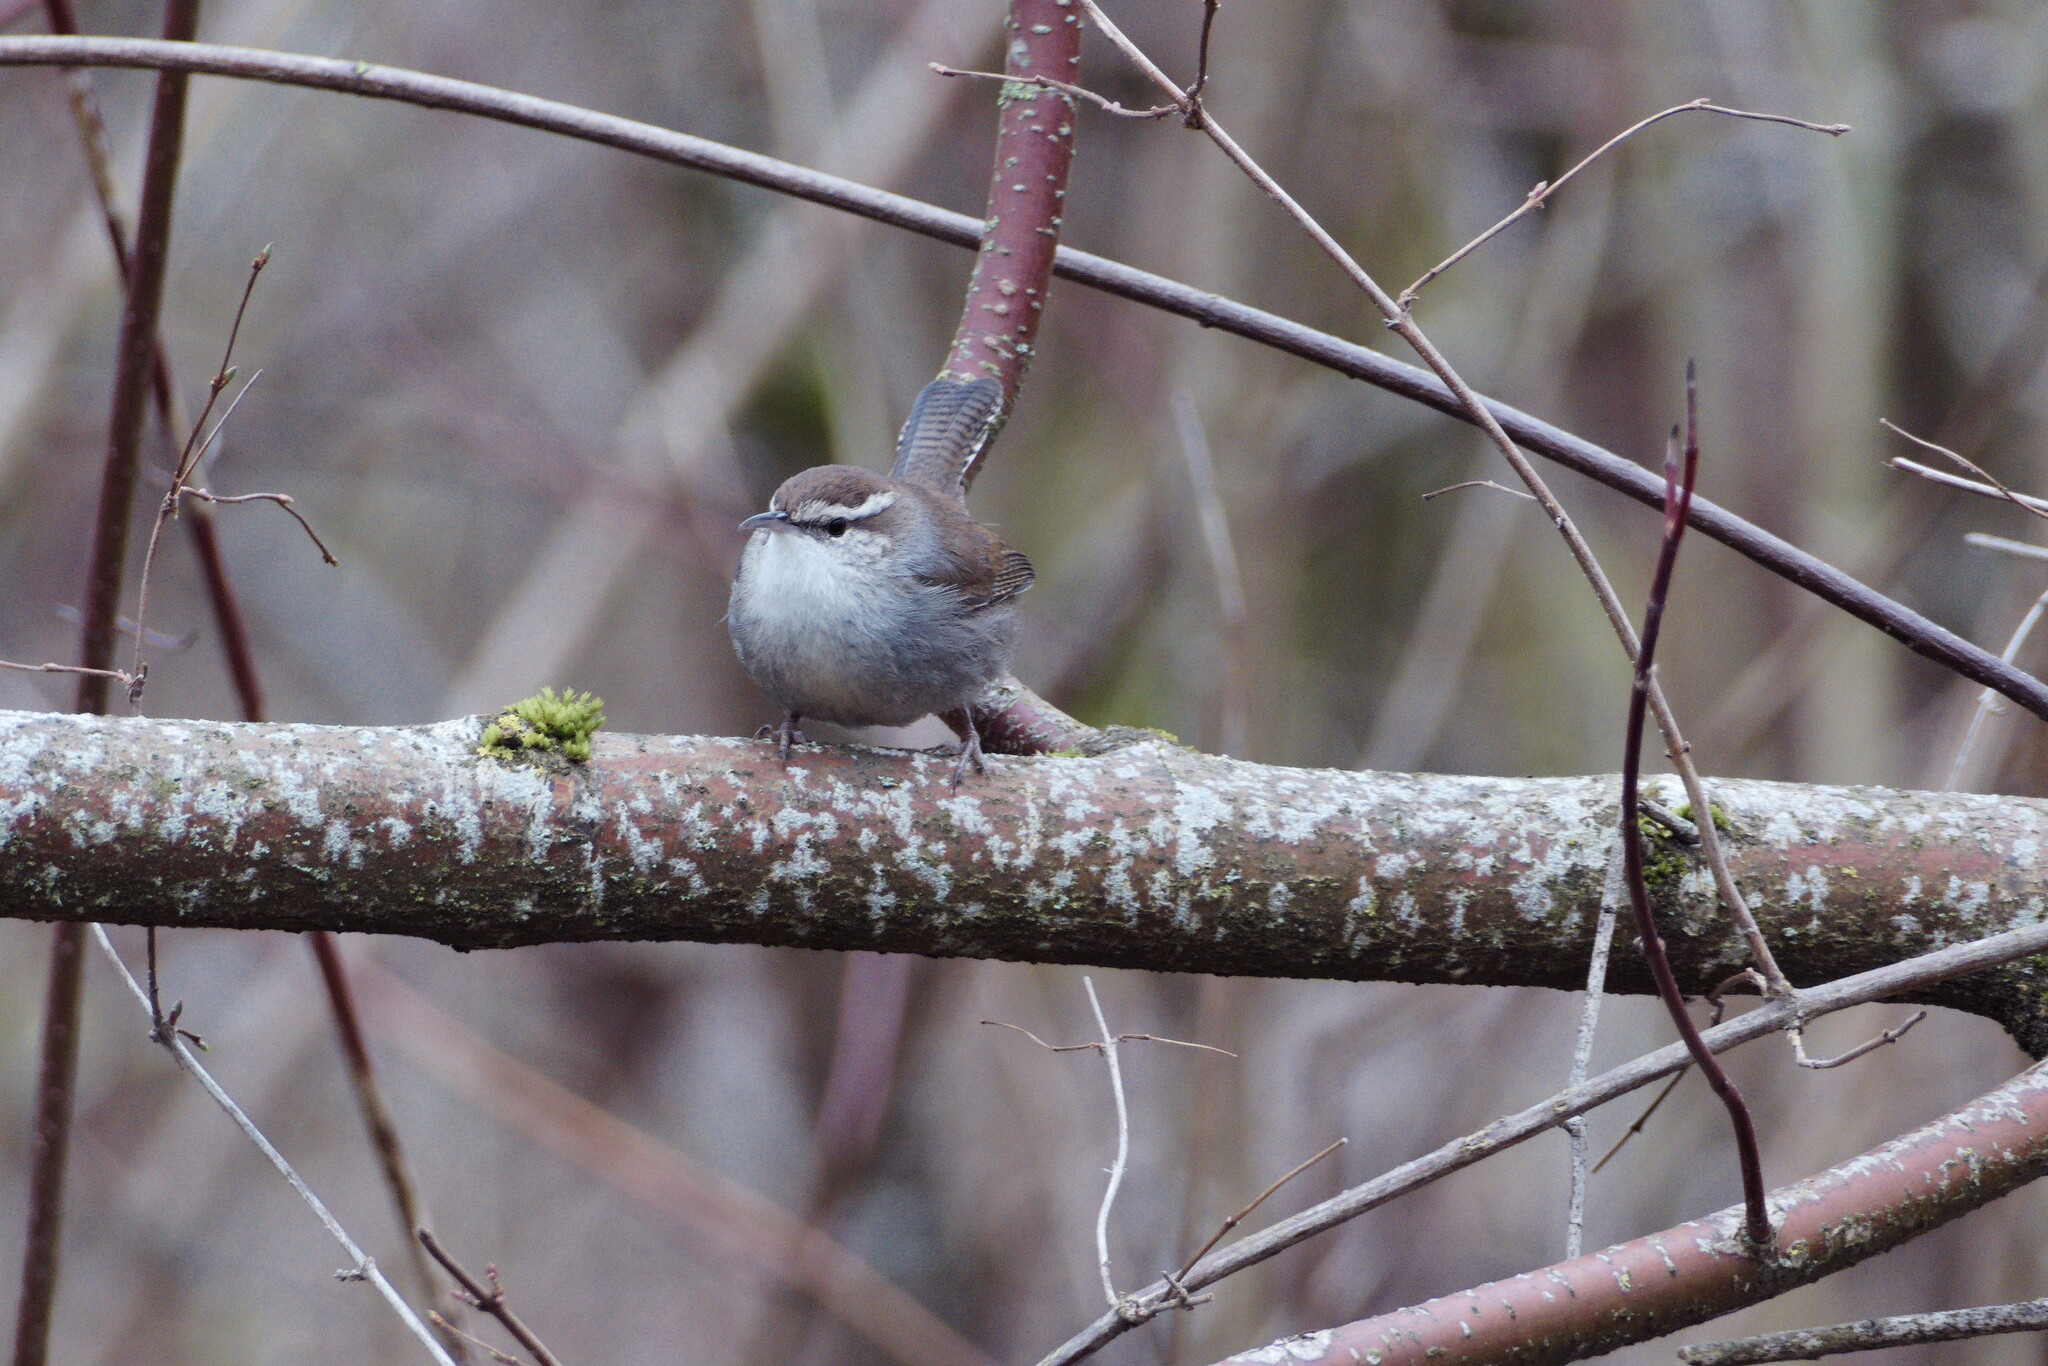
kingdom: Animalia
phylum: Chordata
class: Aves
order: Passeriformes
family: Troglodytidae
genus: Thryomanes
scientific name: Thryomanes bewickii
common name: Bewick's wren
